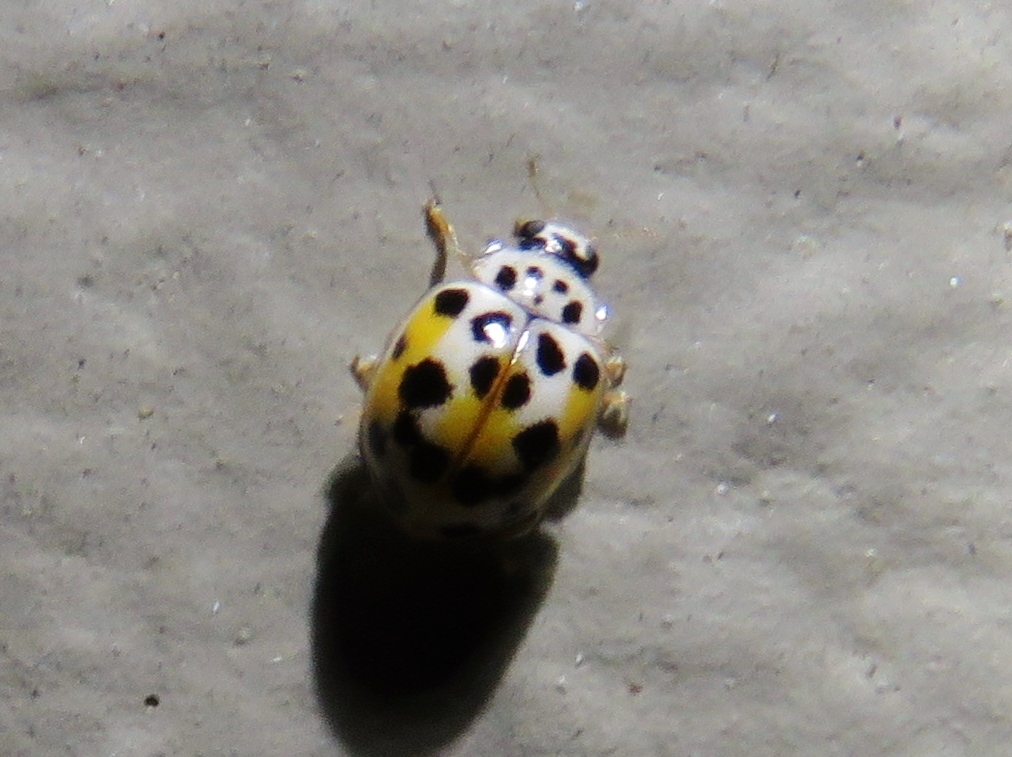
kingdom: Animalia
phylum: Arthropoda
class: Insecta
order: Coleoptera
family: Coccinellidae
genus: Psyllobora
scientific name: Psyllobora vigintimaculata
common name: Ladybird beetle
